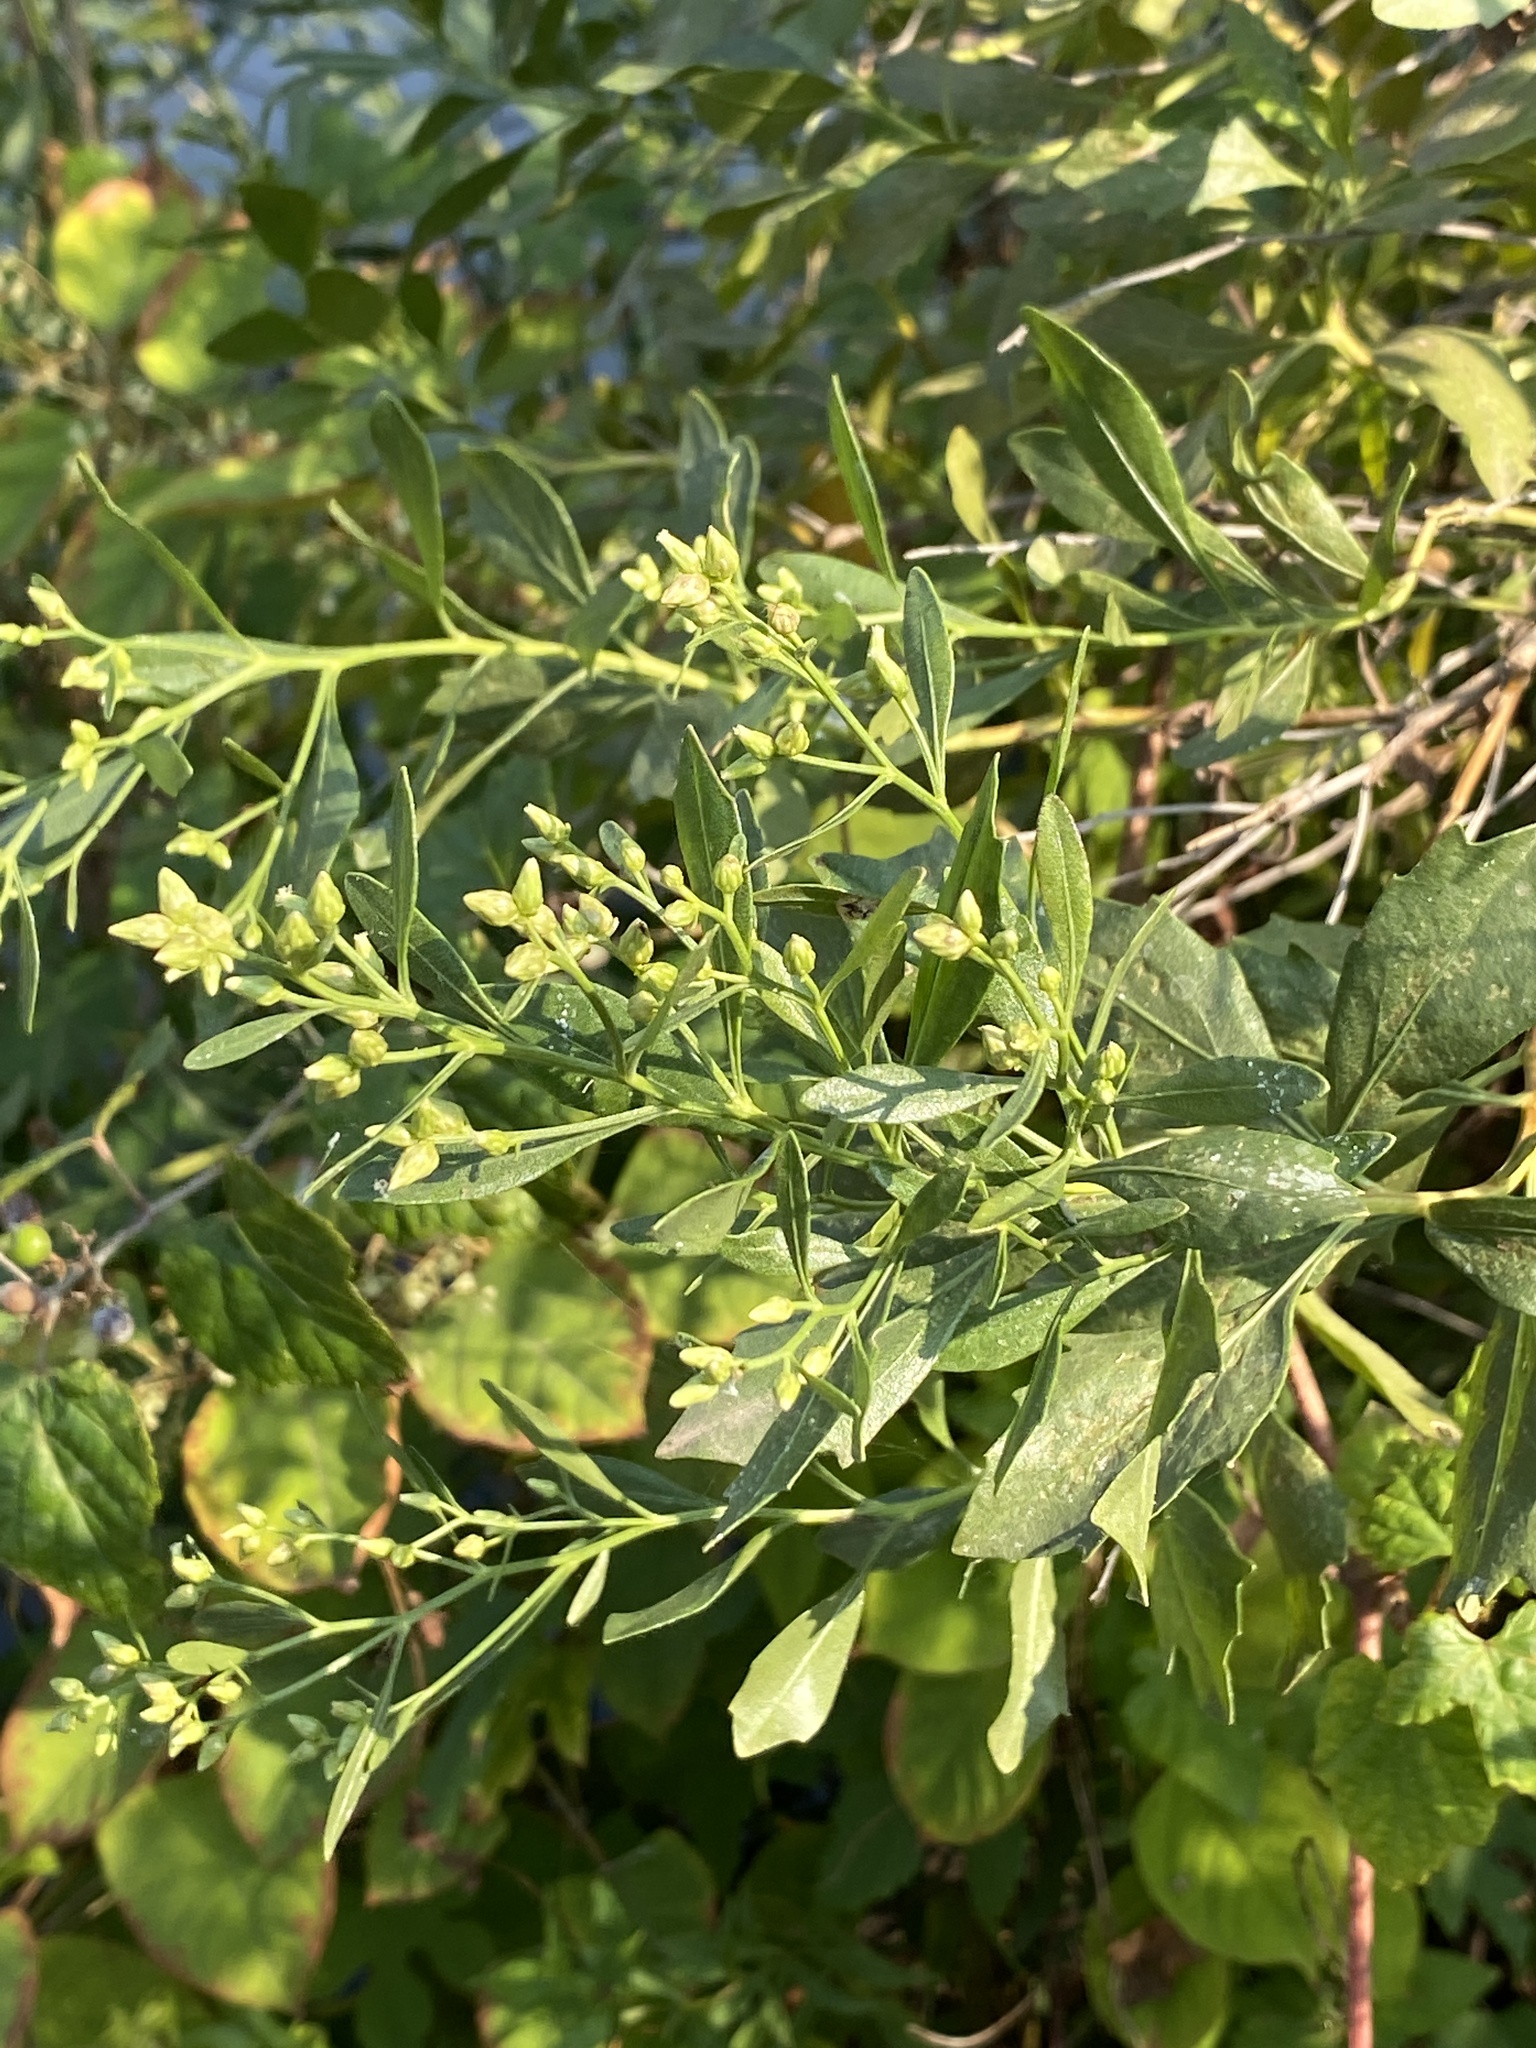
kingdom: Plantae
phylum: Tracheophyta
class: Magnoliopsida
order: Asterales
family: Asteraceae
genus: Baccharis
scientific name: Baccharis halimifolia
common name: Eastern baccharis
